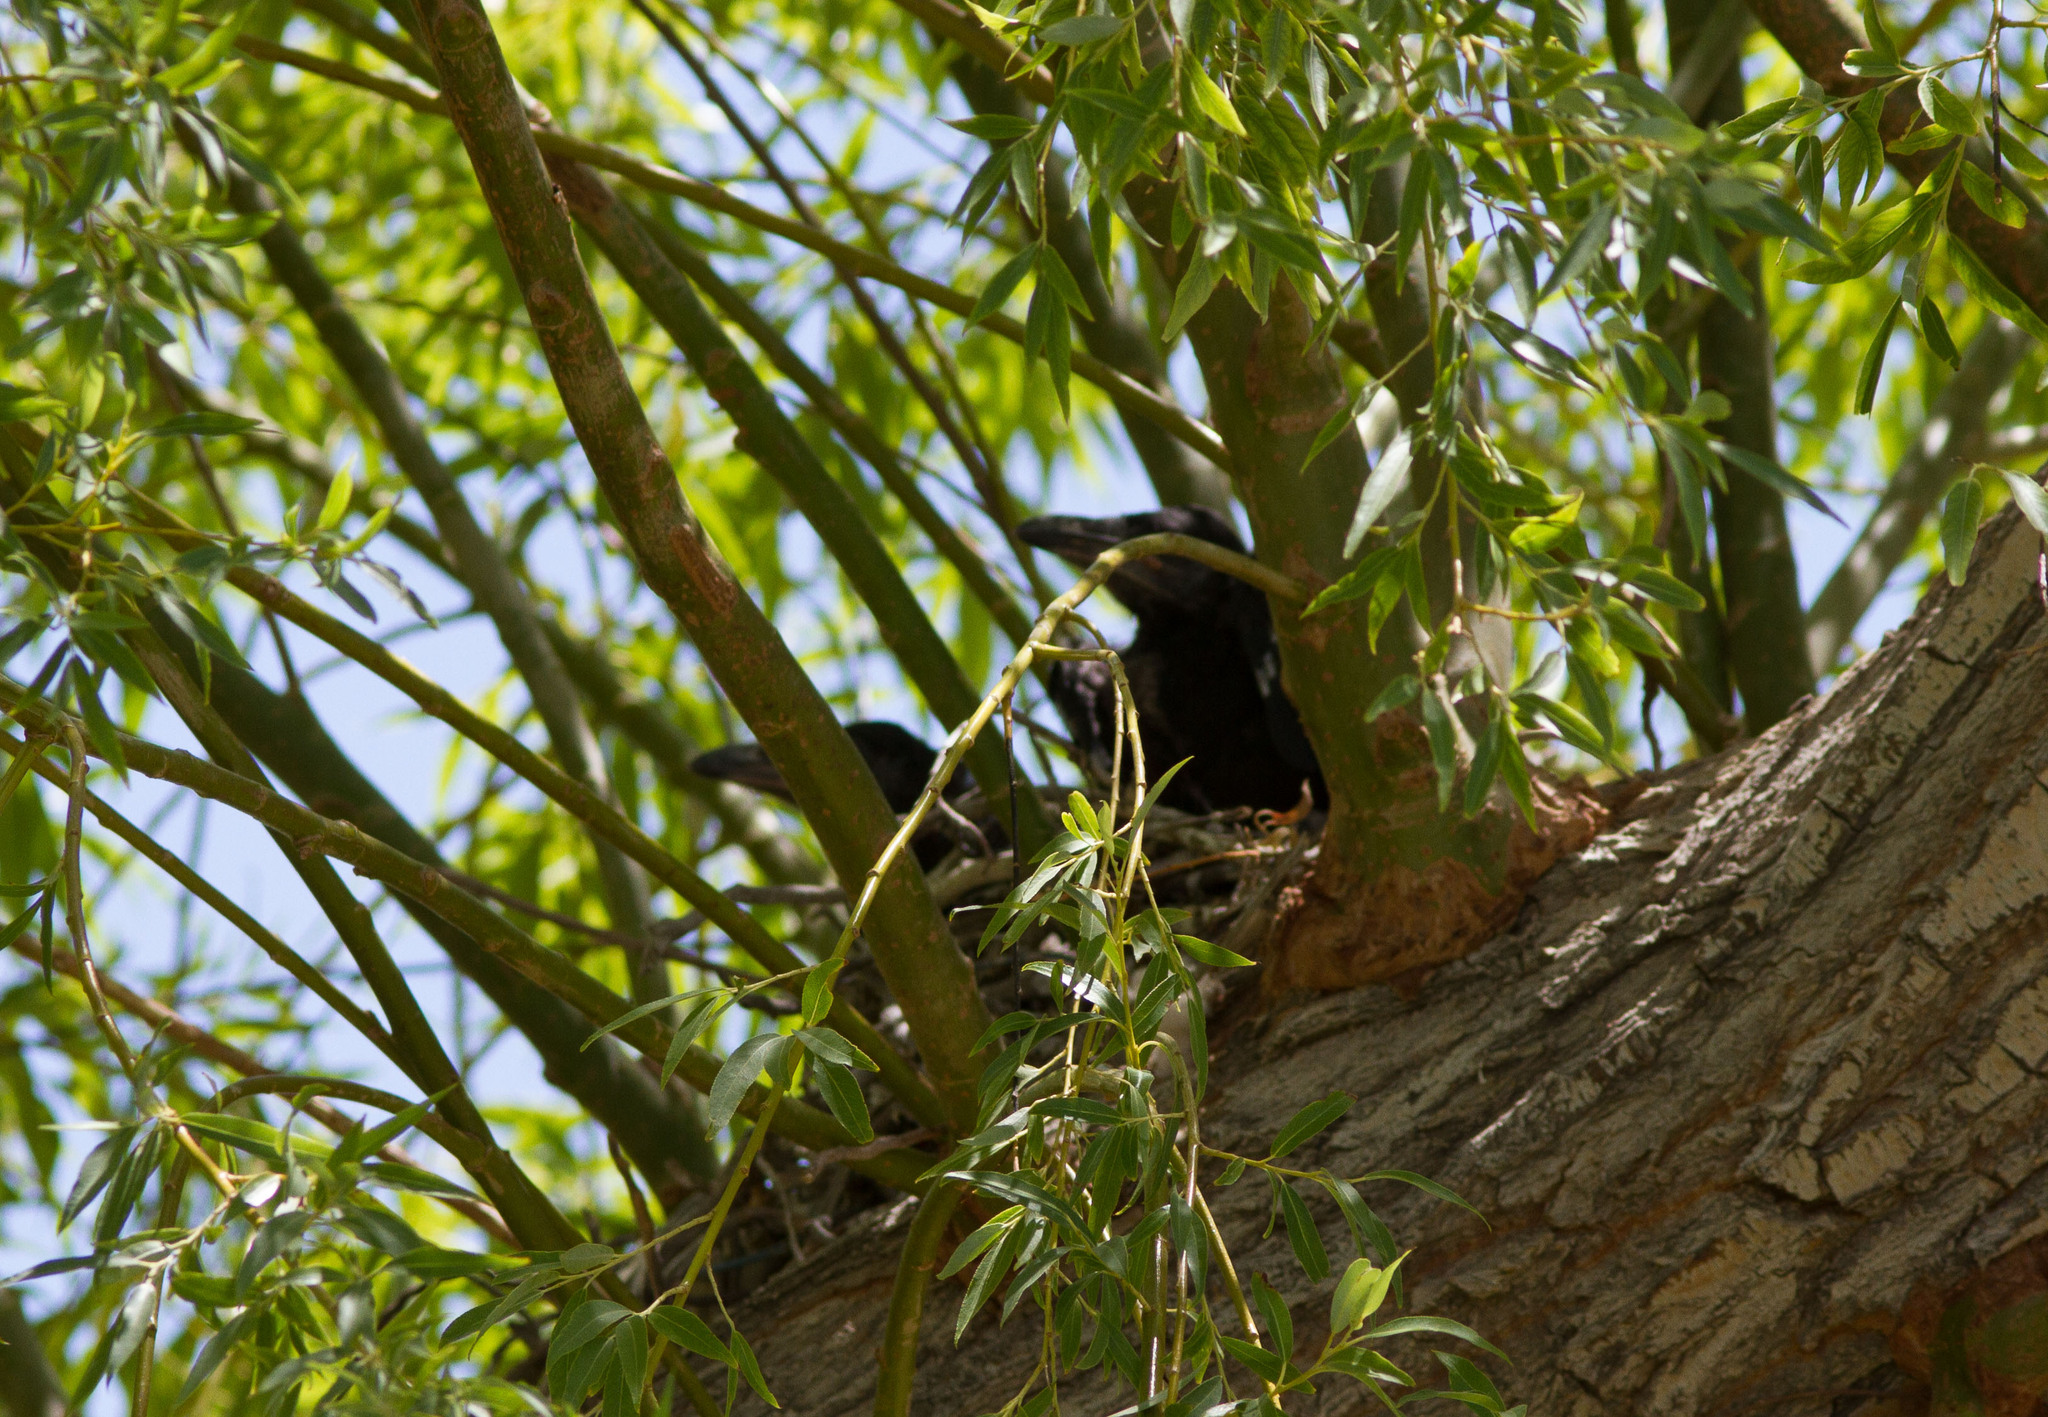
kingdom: Animalia
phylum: Chordata
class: Aves
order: Passeriformes
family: Corvidae
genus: Corvus
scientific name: Corvus corax
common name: Common raven
